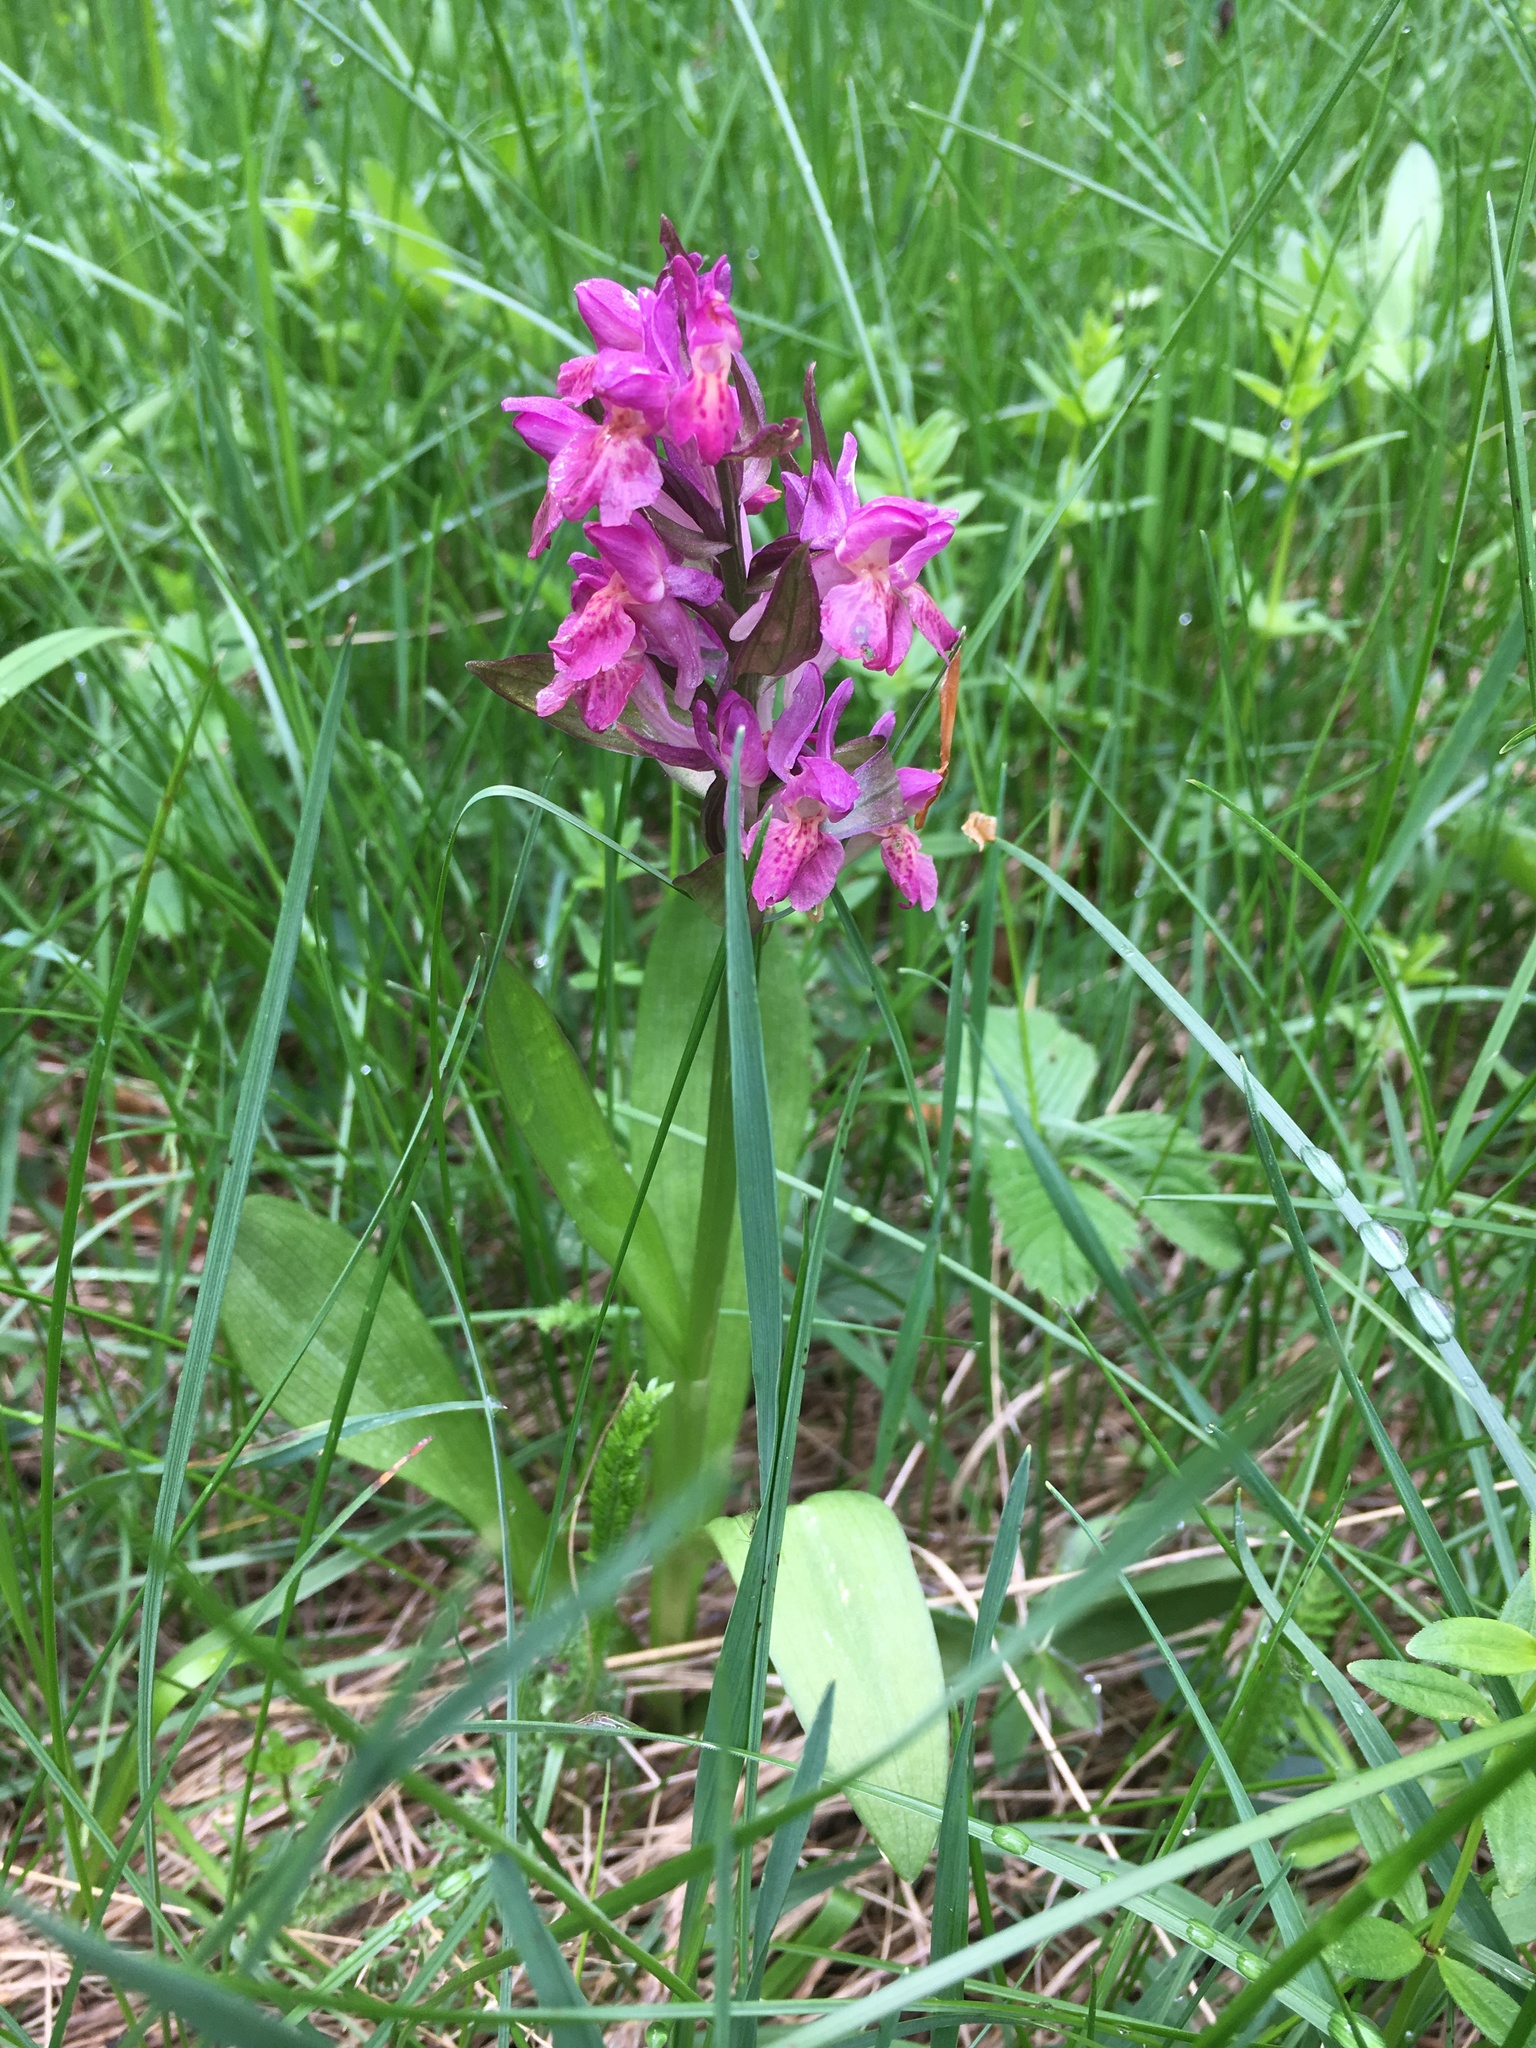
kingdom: Plantae
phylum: Tracheophyta
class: Liliopsida
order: Asparagales
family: Orchidaceae
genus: Dactylorhiza
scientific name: Dactylorhiza sambucina
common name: Elder-flowered orchid
